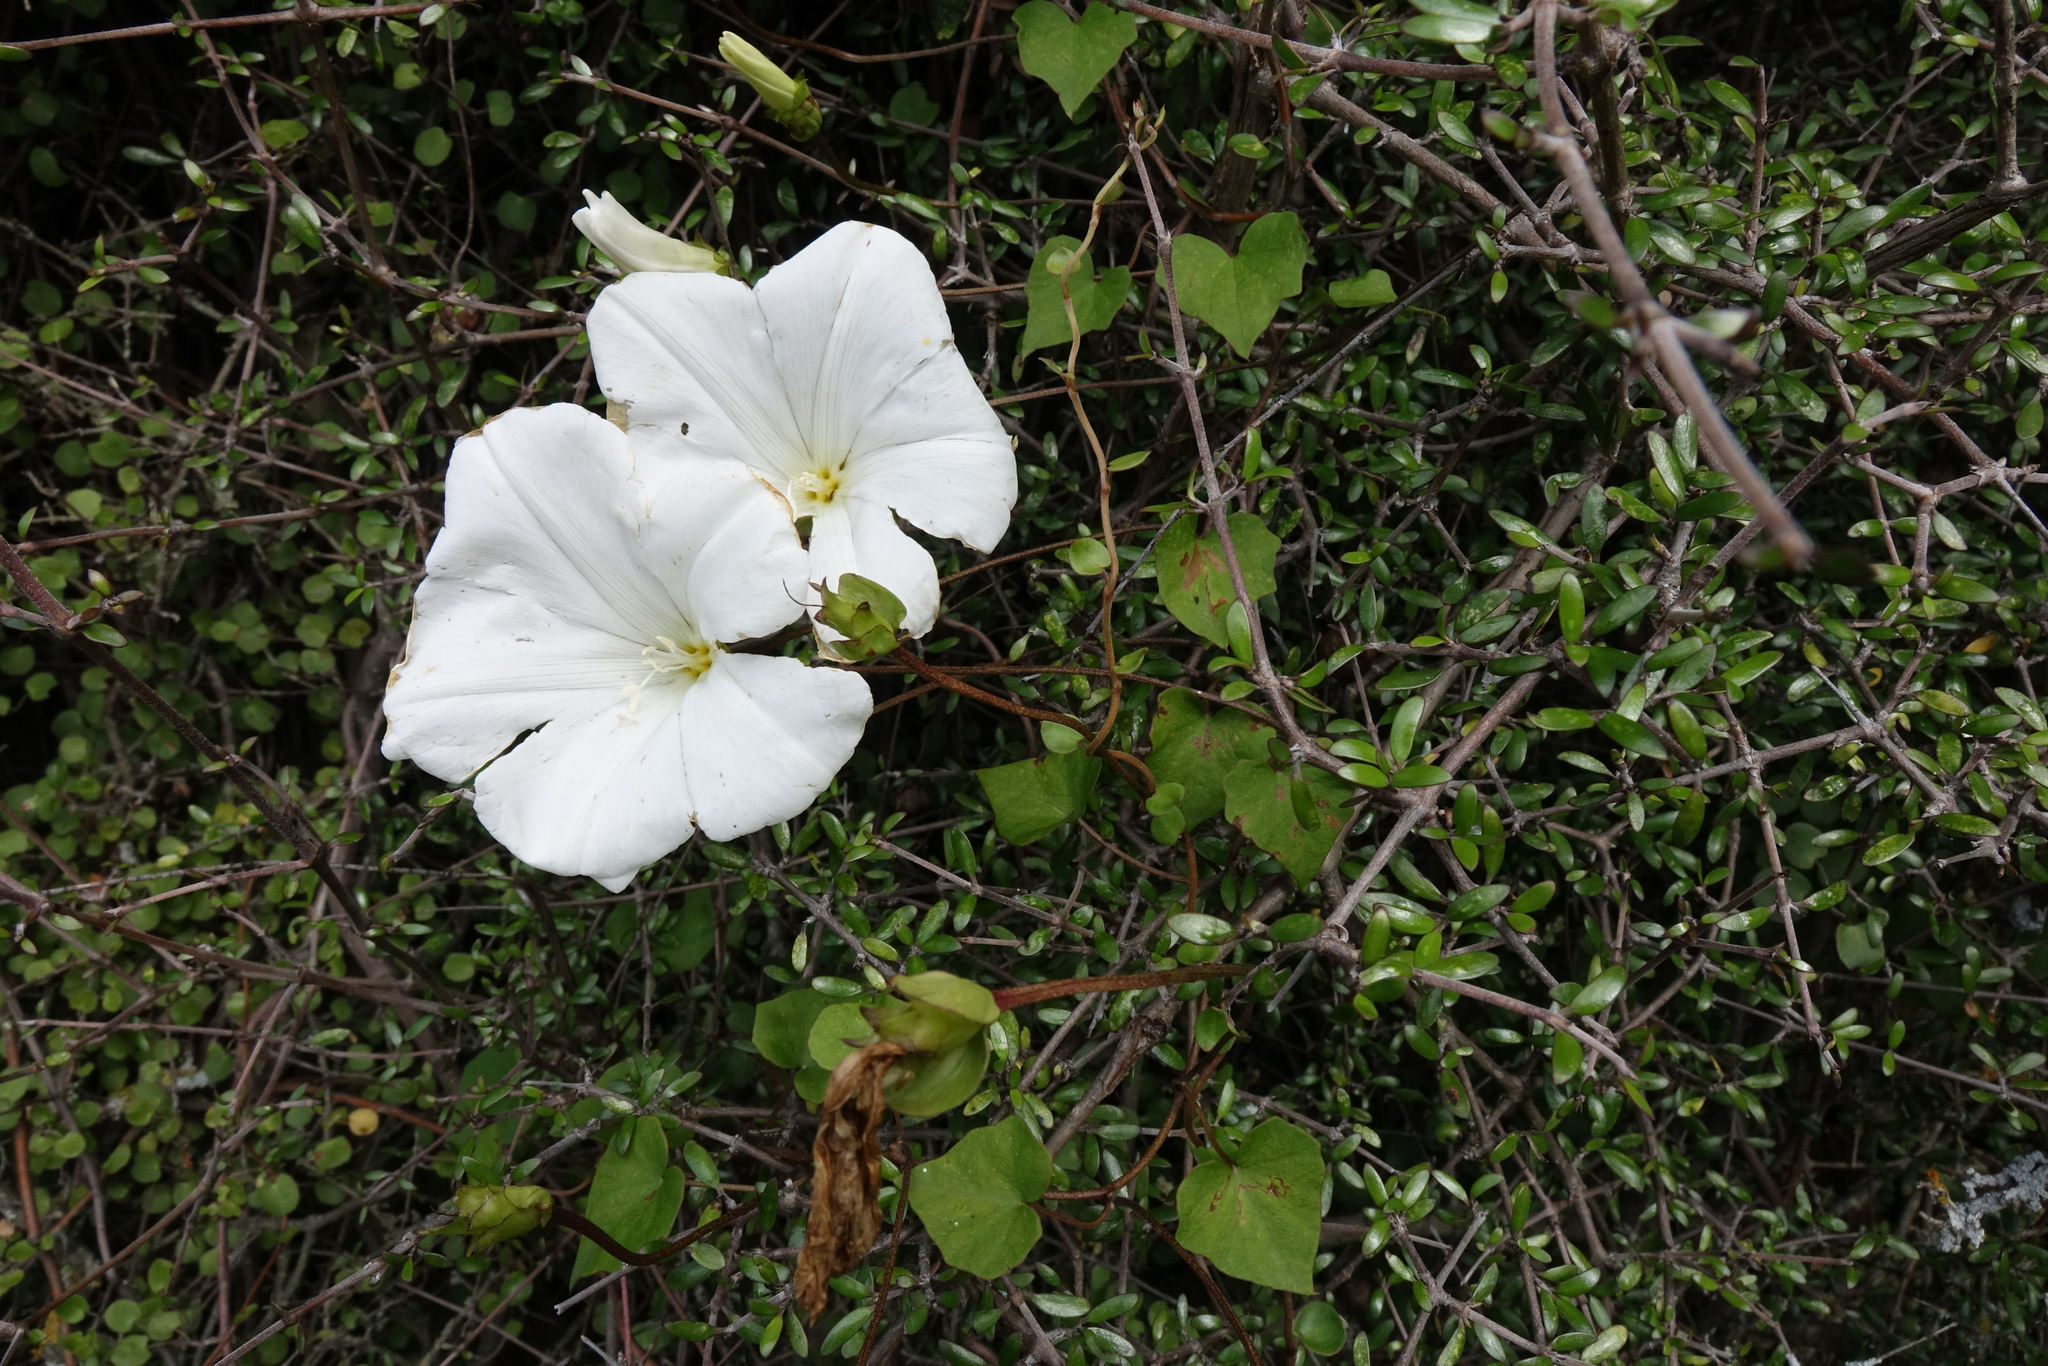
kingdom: Plantae
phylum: Tracheophyta
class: Magnoliopsida
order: Solanales
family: Convolvulaceae
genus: Calystegia
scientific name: Calystegia tuguriorum
